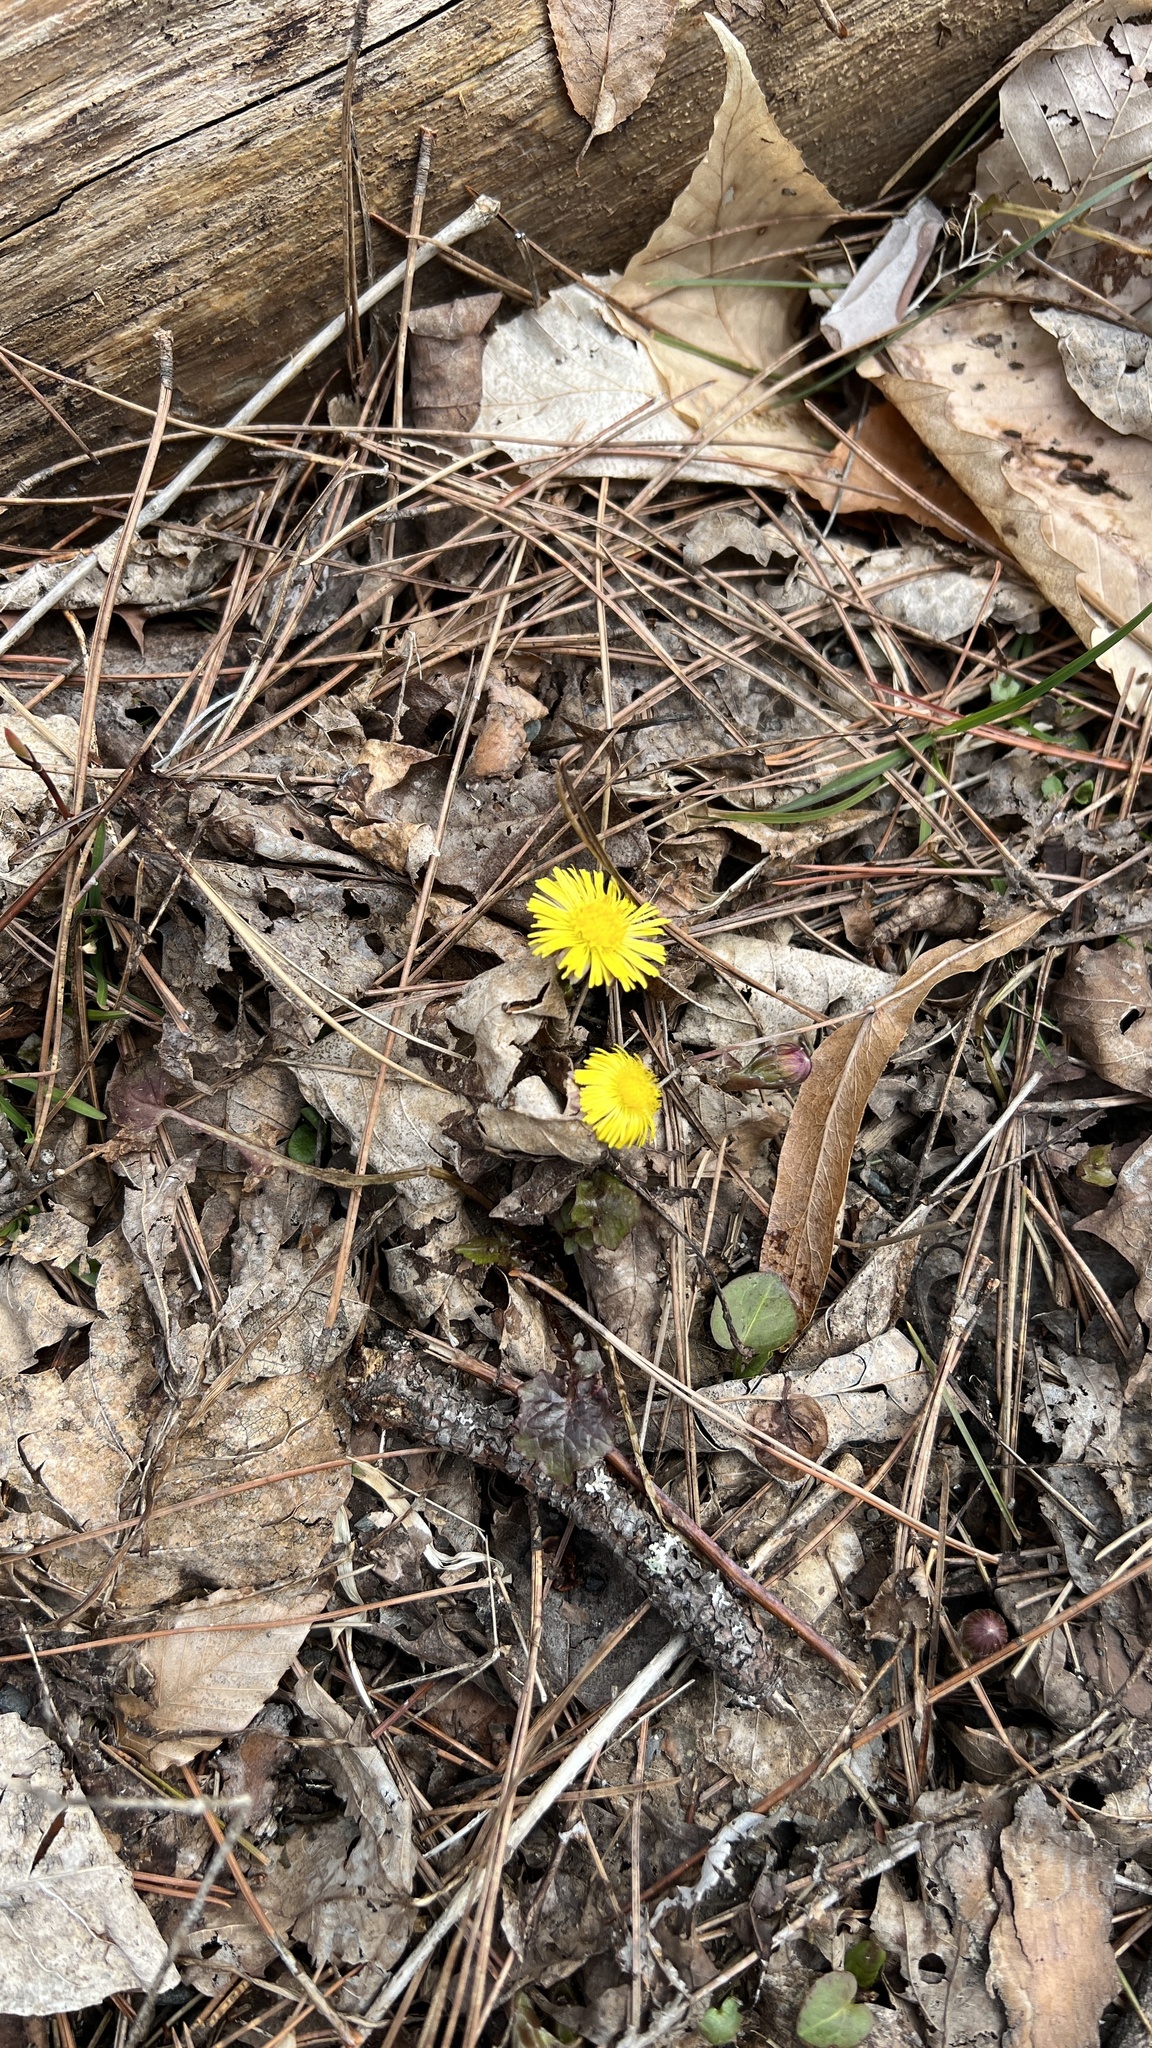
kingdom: Plantae
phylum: Tracheophyta
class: Magnoliopsida
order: Asterales
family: Asteraceae
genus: Tussilago
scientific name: Tussilago farfara
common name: Coltsfoot
